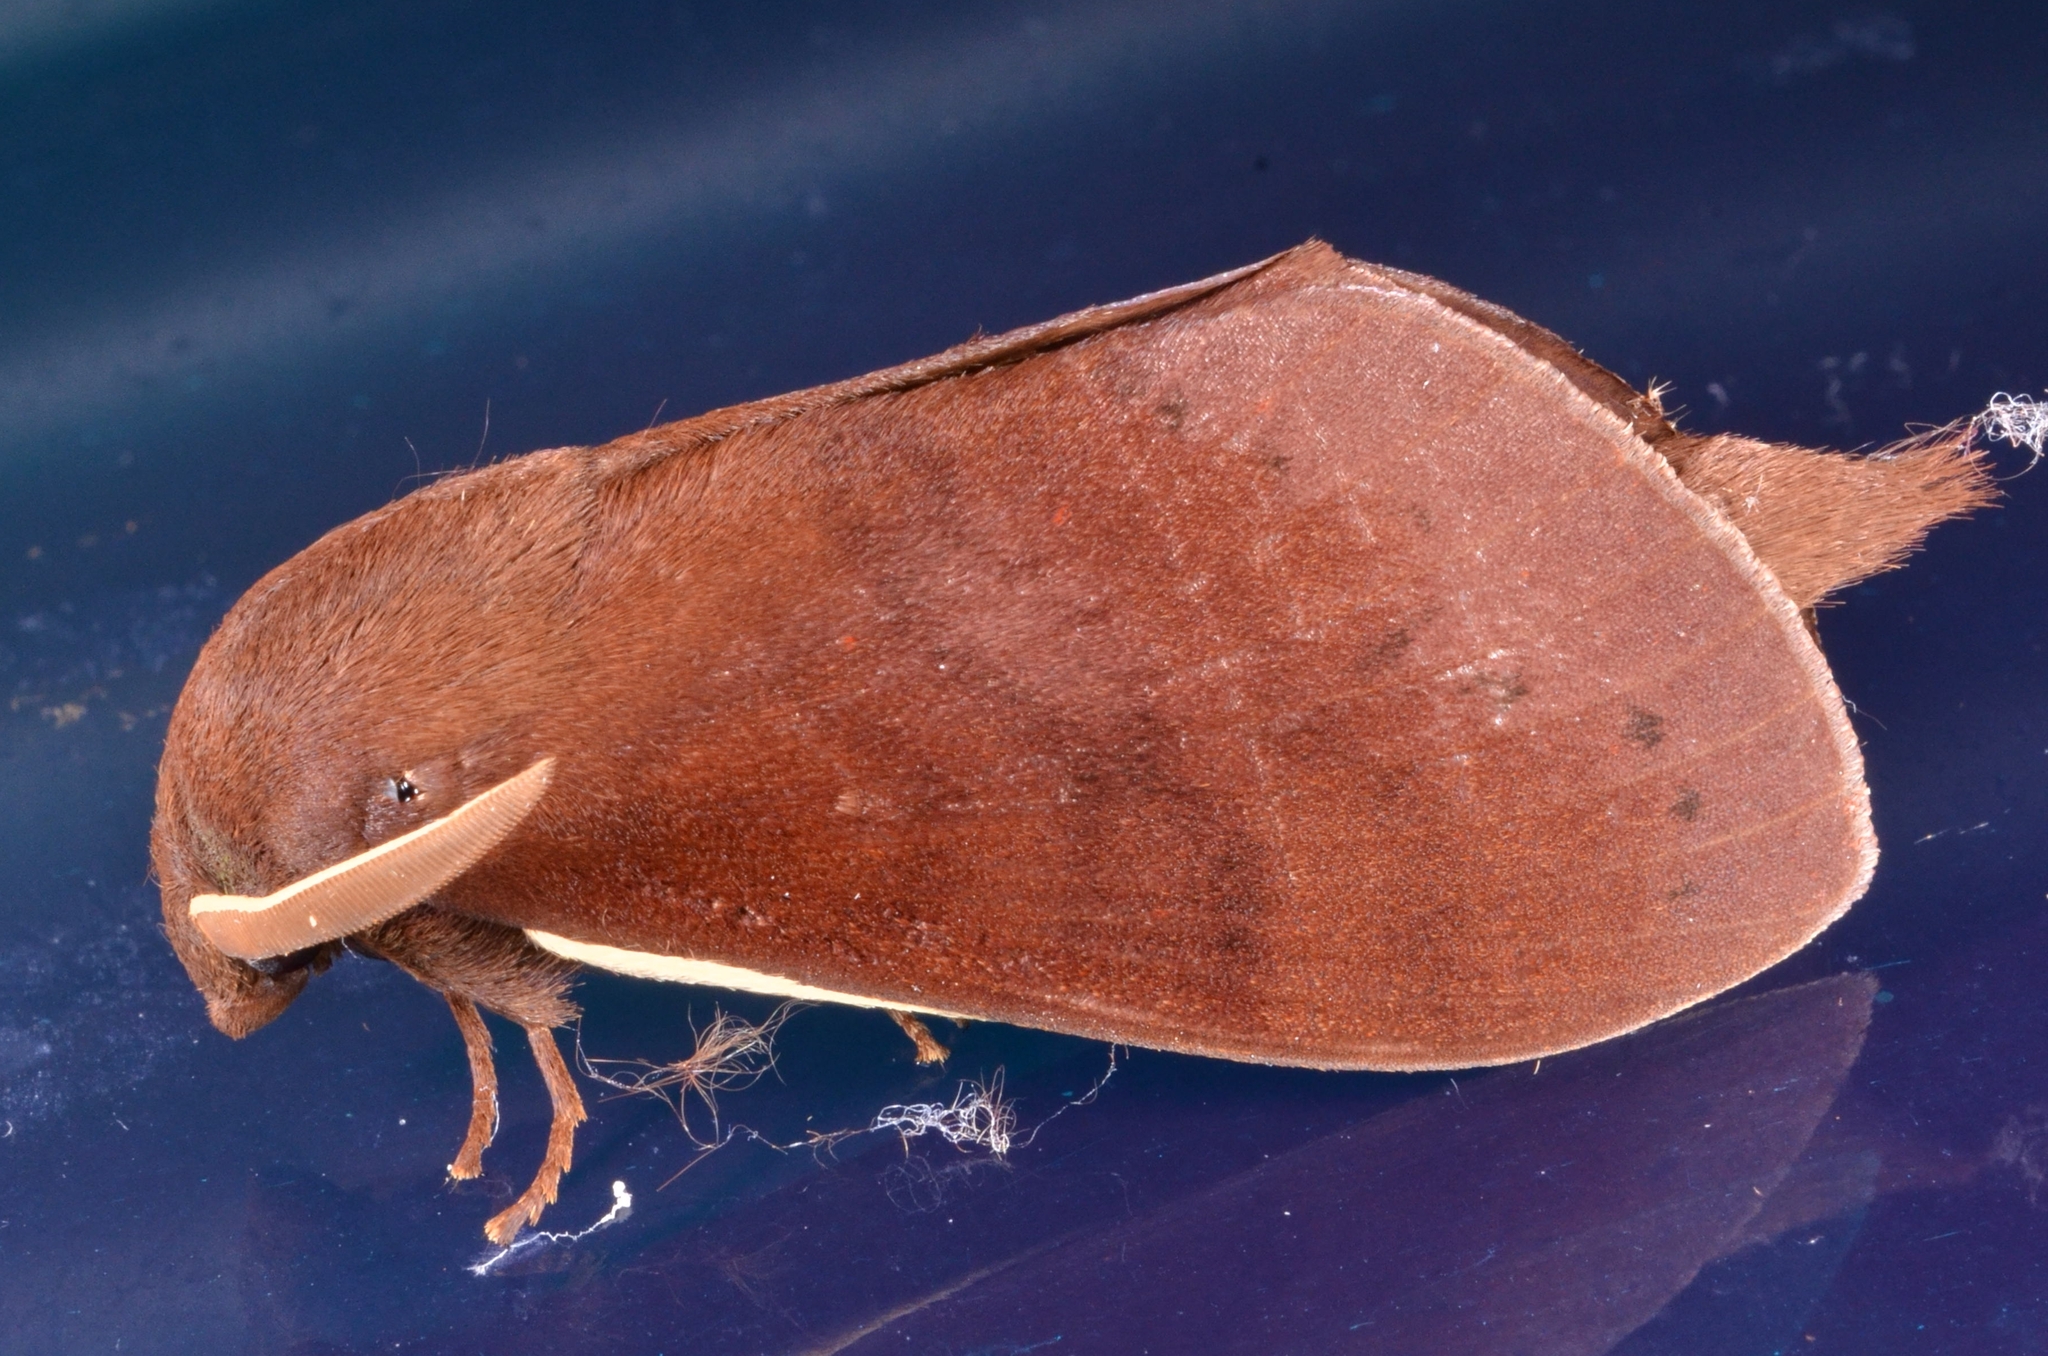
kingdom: Animalia
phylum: Arthropoda
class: Insecta
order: Lepidoptera
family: Lasiocampidae
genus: Dendrolimus
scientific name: Dendrolimus grisea
